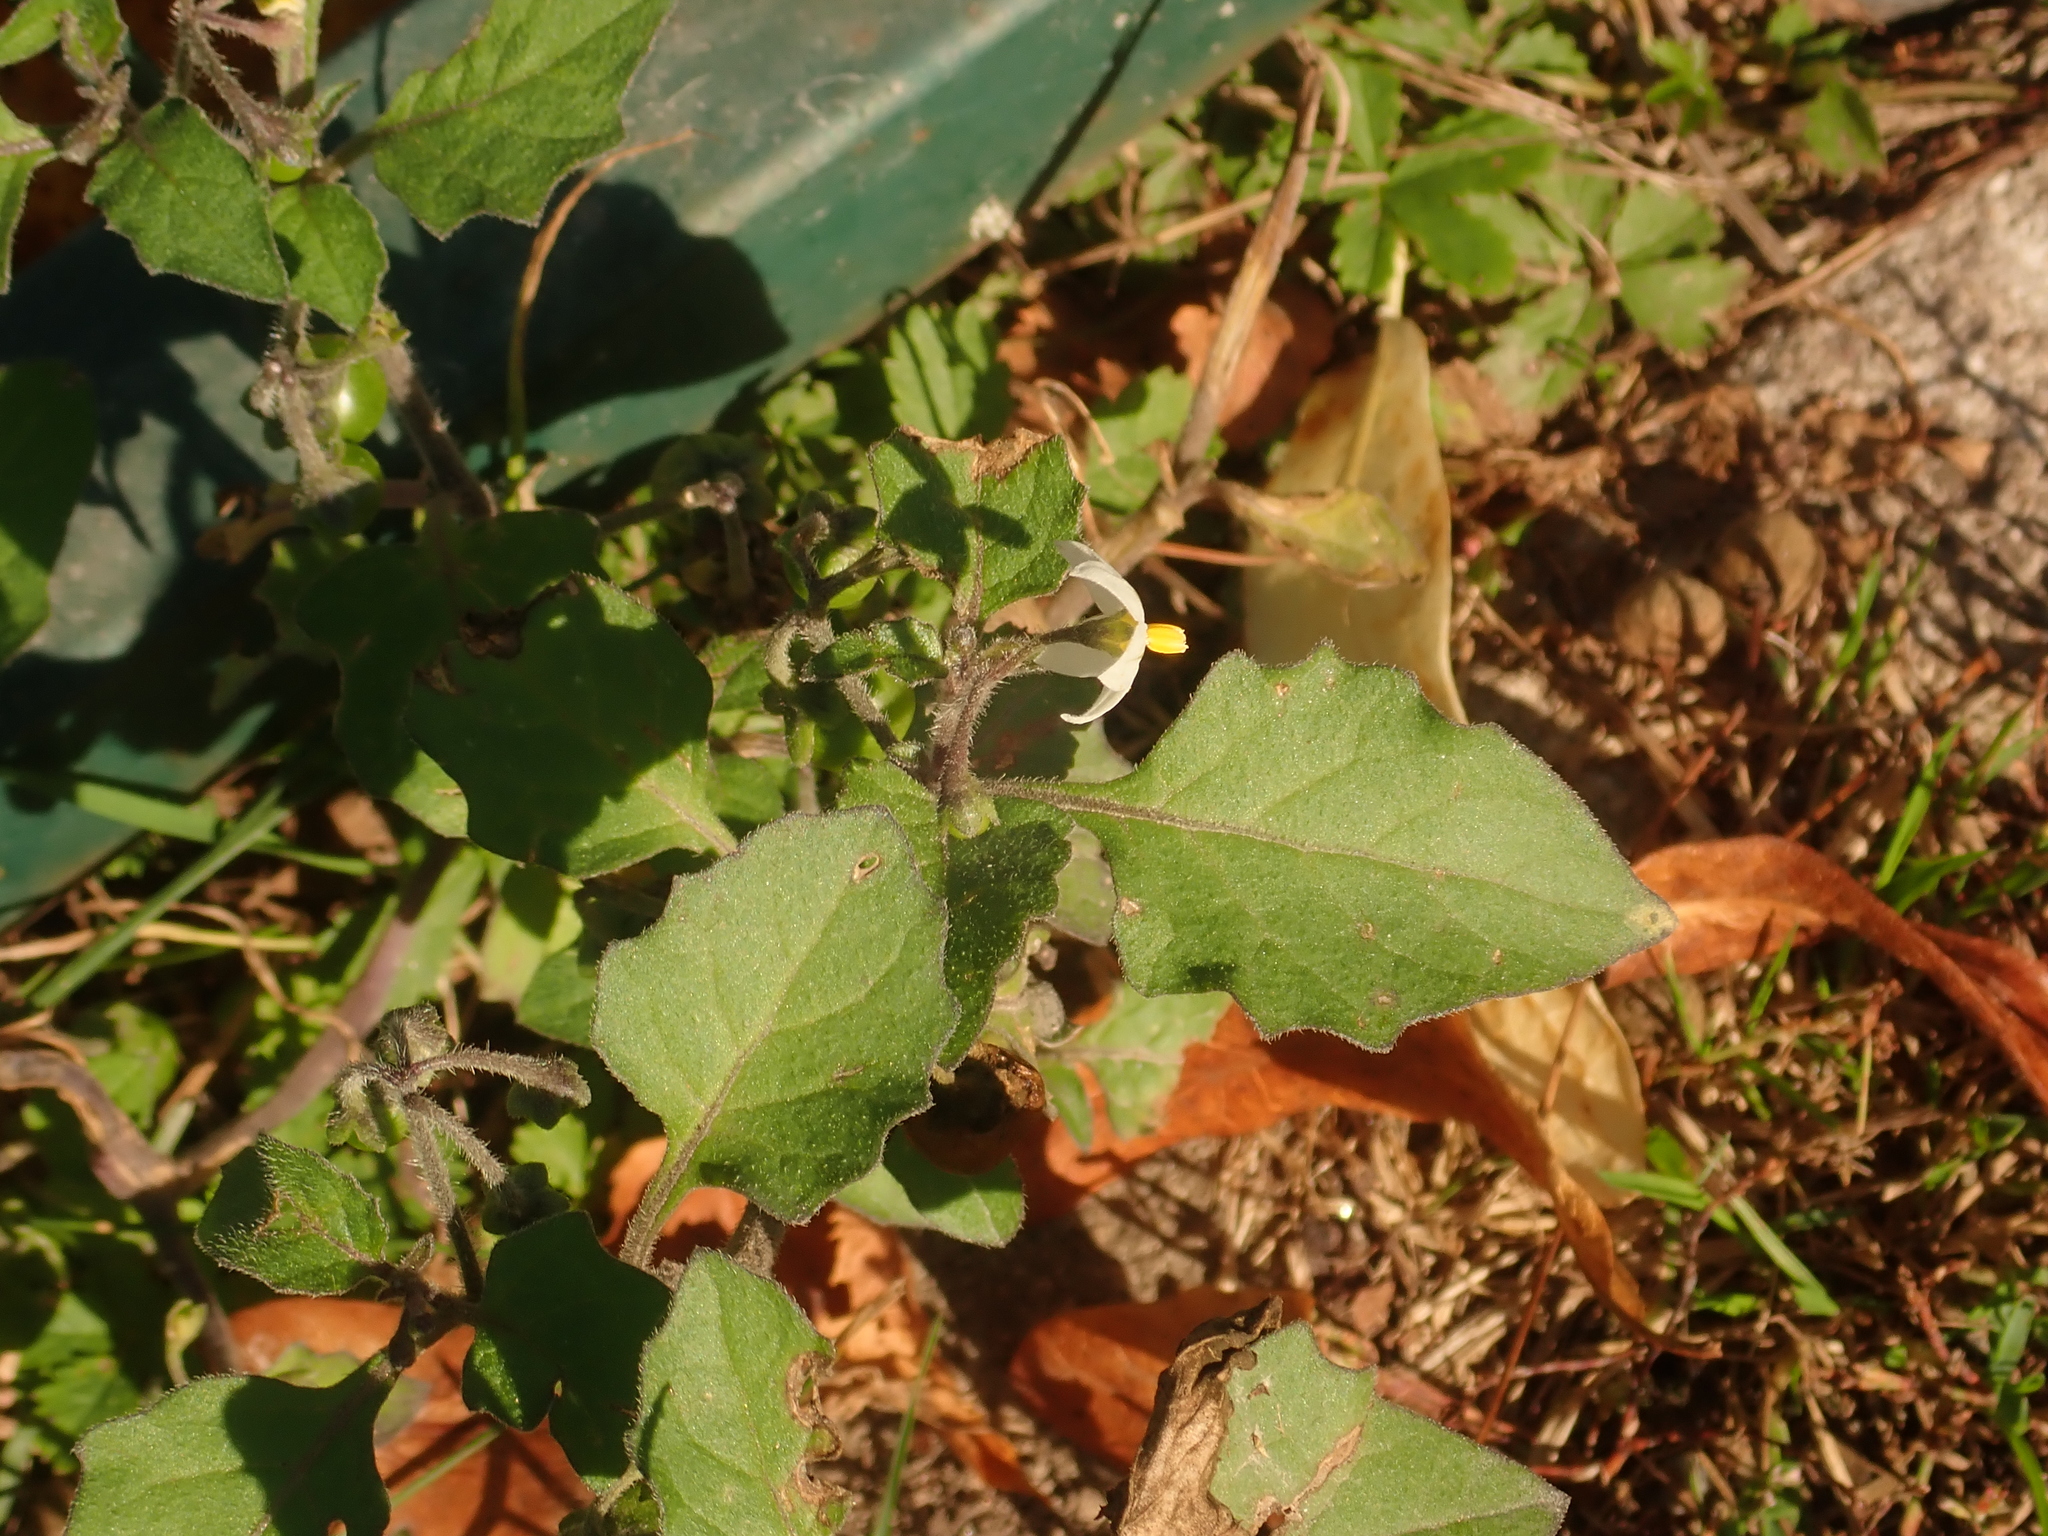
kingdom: Plantae
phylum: Tracheophyta
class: Magnoliopsida
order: Solanales
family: Solanaceae
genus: Solanum
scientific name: Solanum nigrum
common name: Black nightshade
